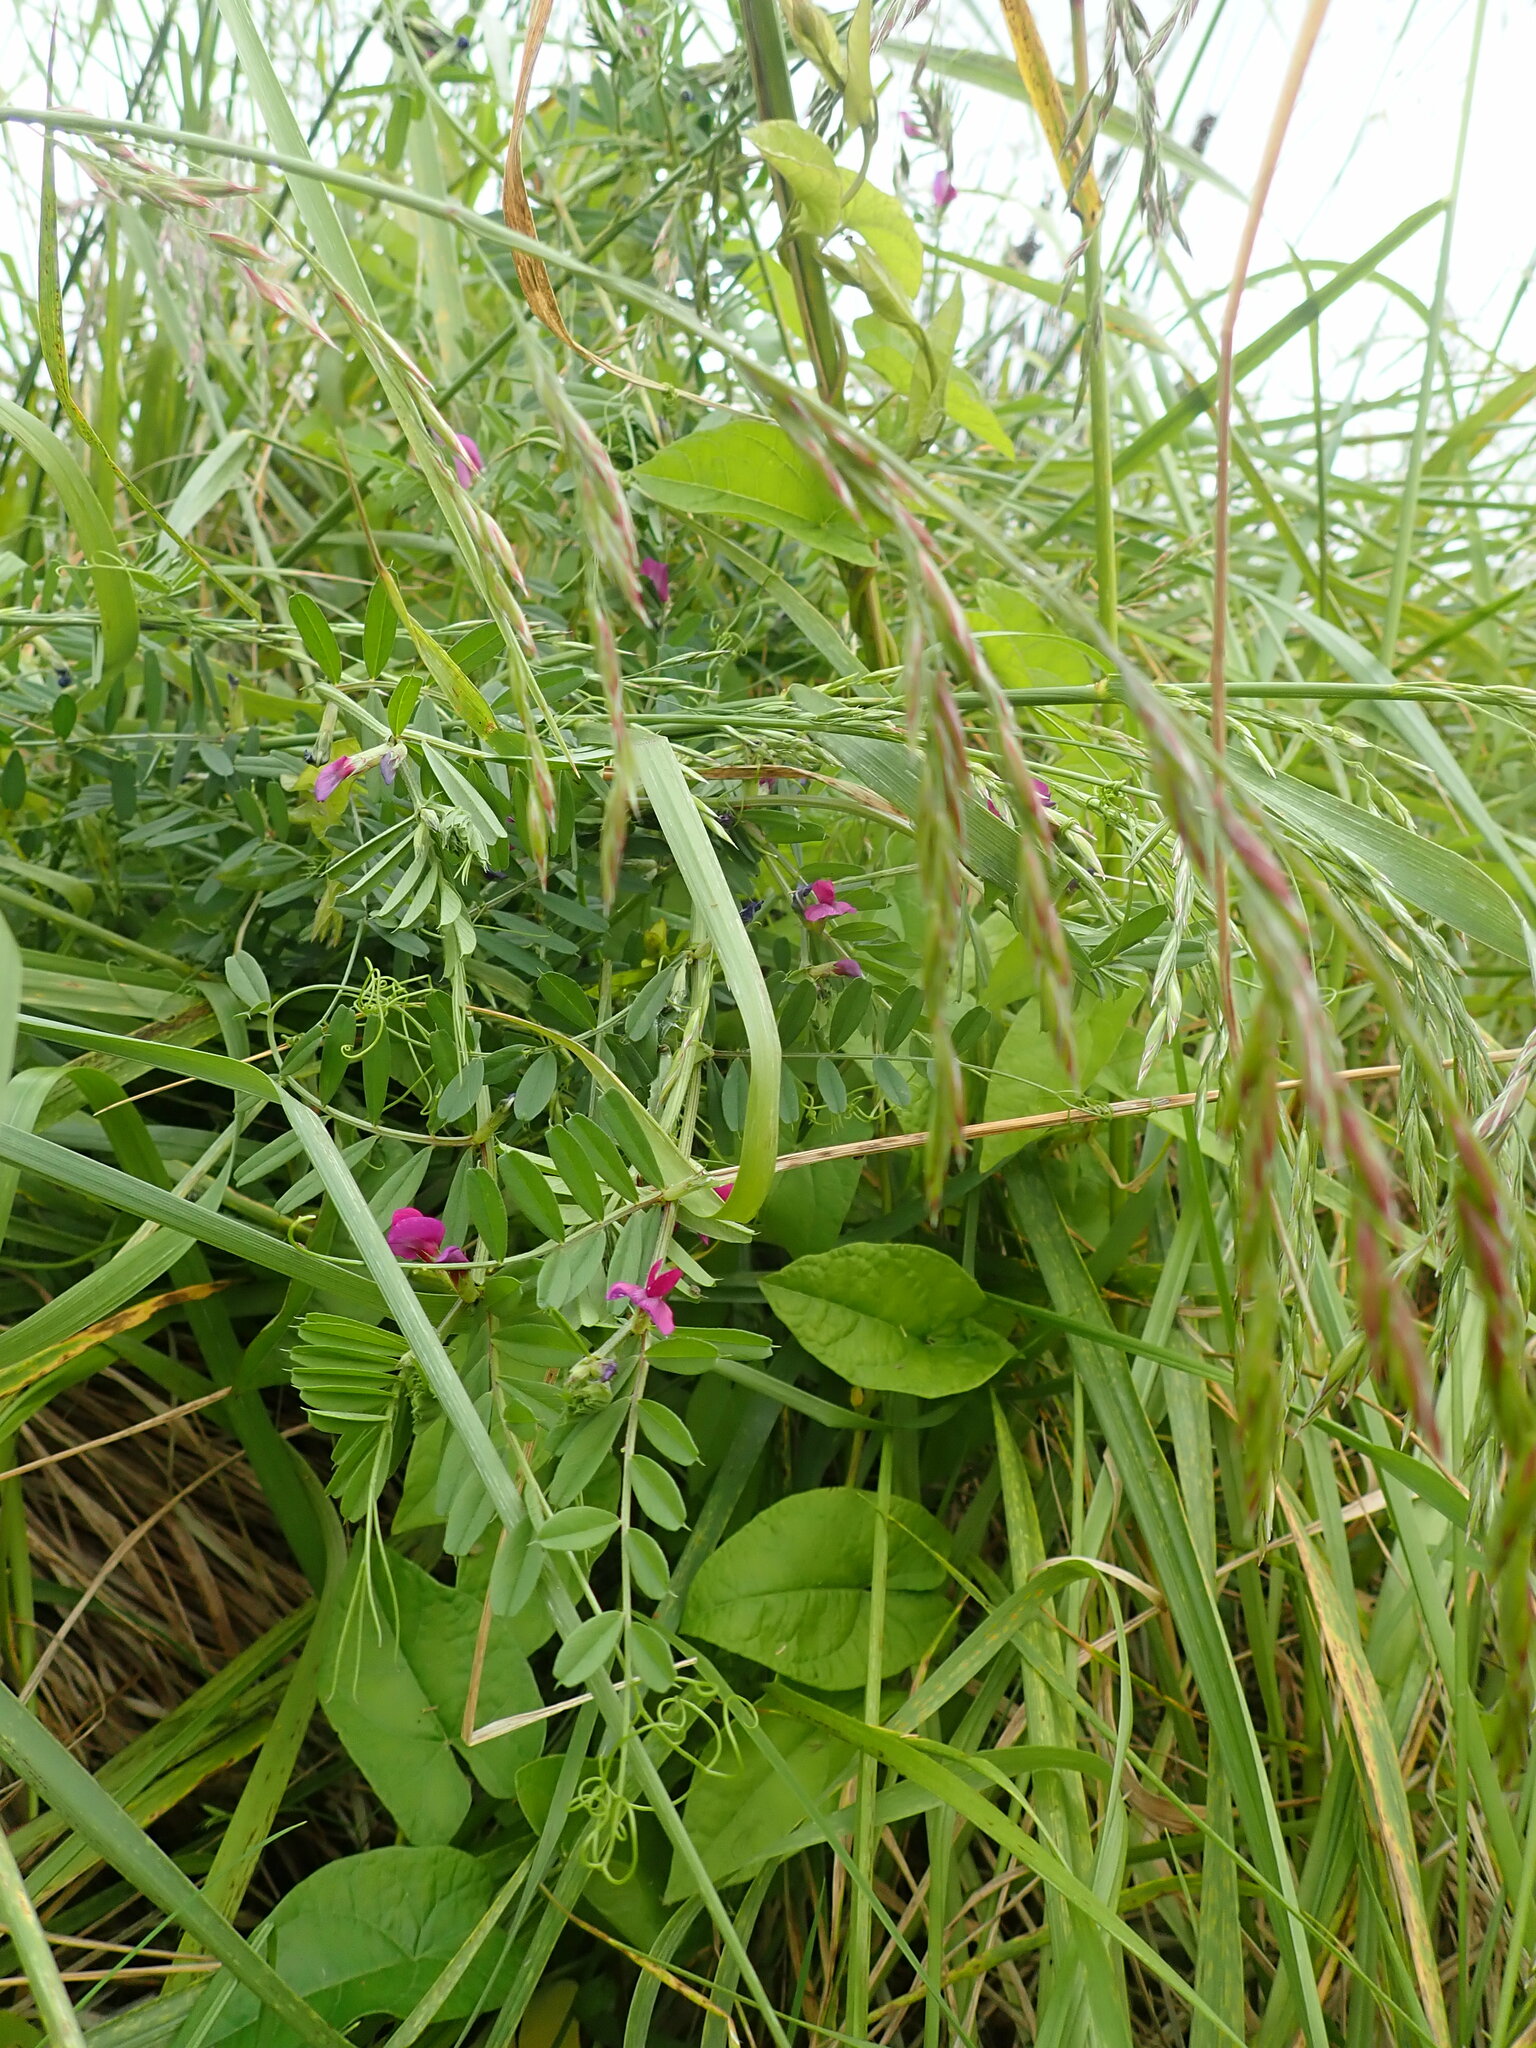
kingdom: Plantae
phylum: Tracheophyta
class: Magnoliopsida
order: Fabales
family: Fabaceae
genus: Vicia
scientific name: Vicia sativa
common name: Garden vetch
